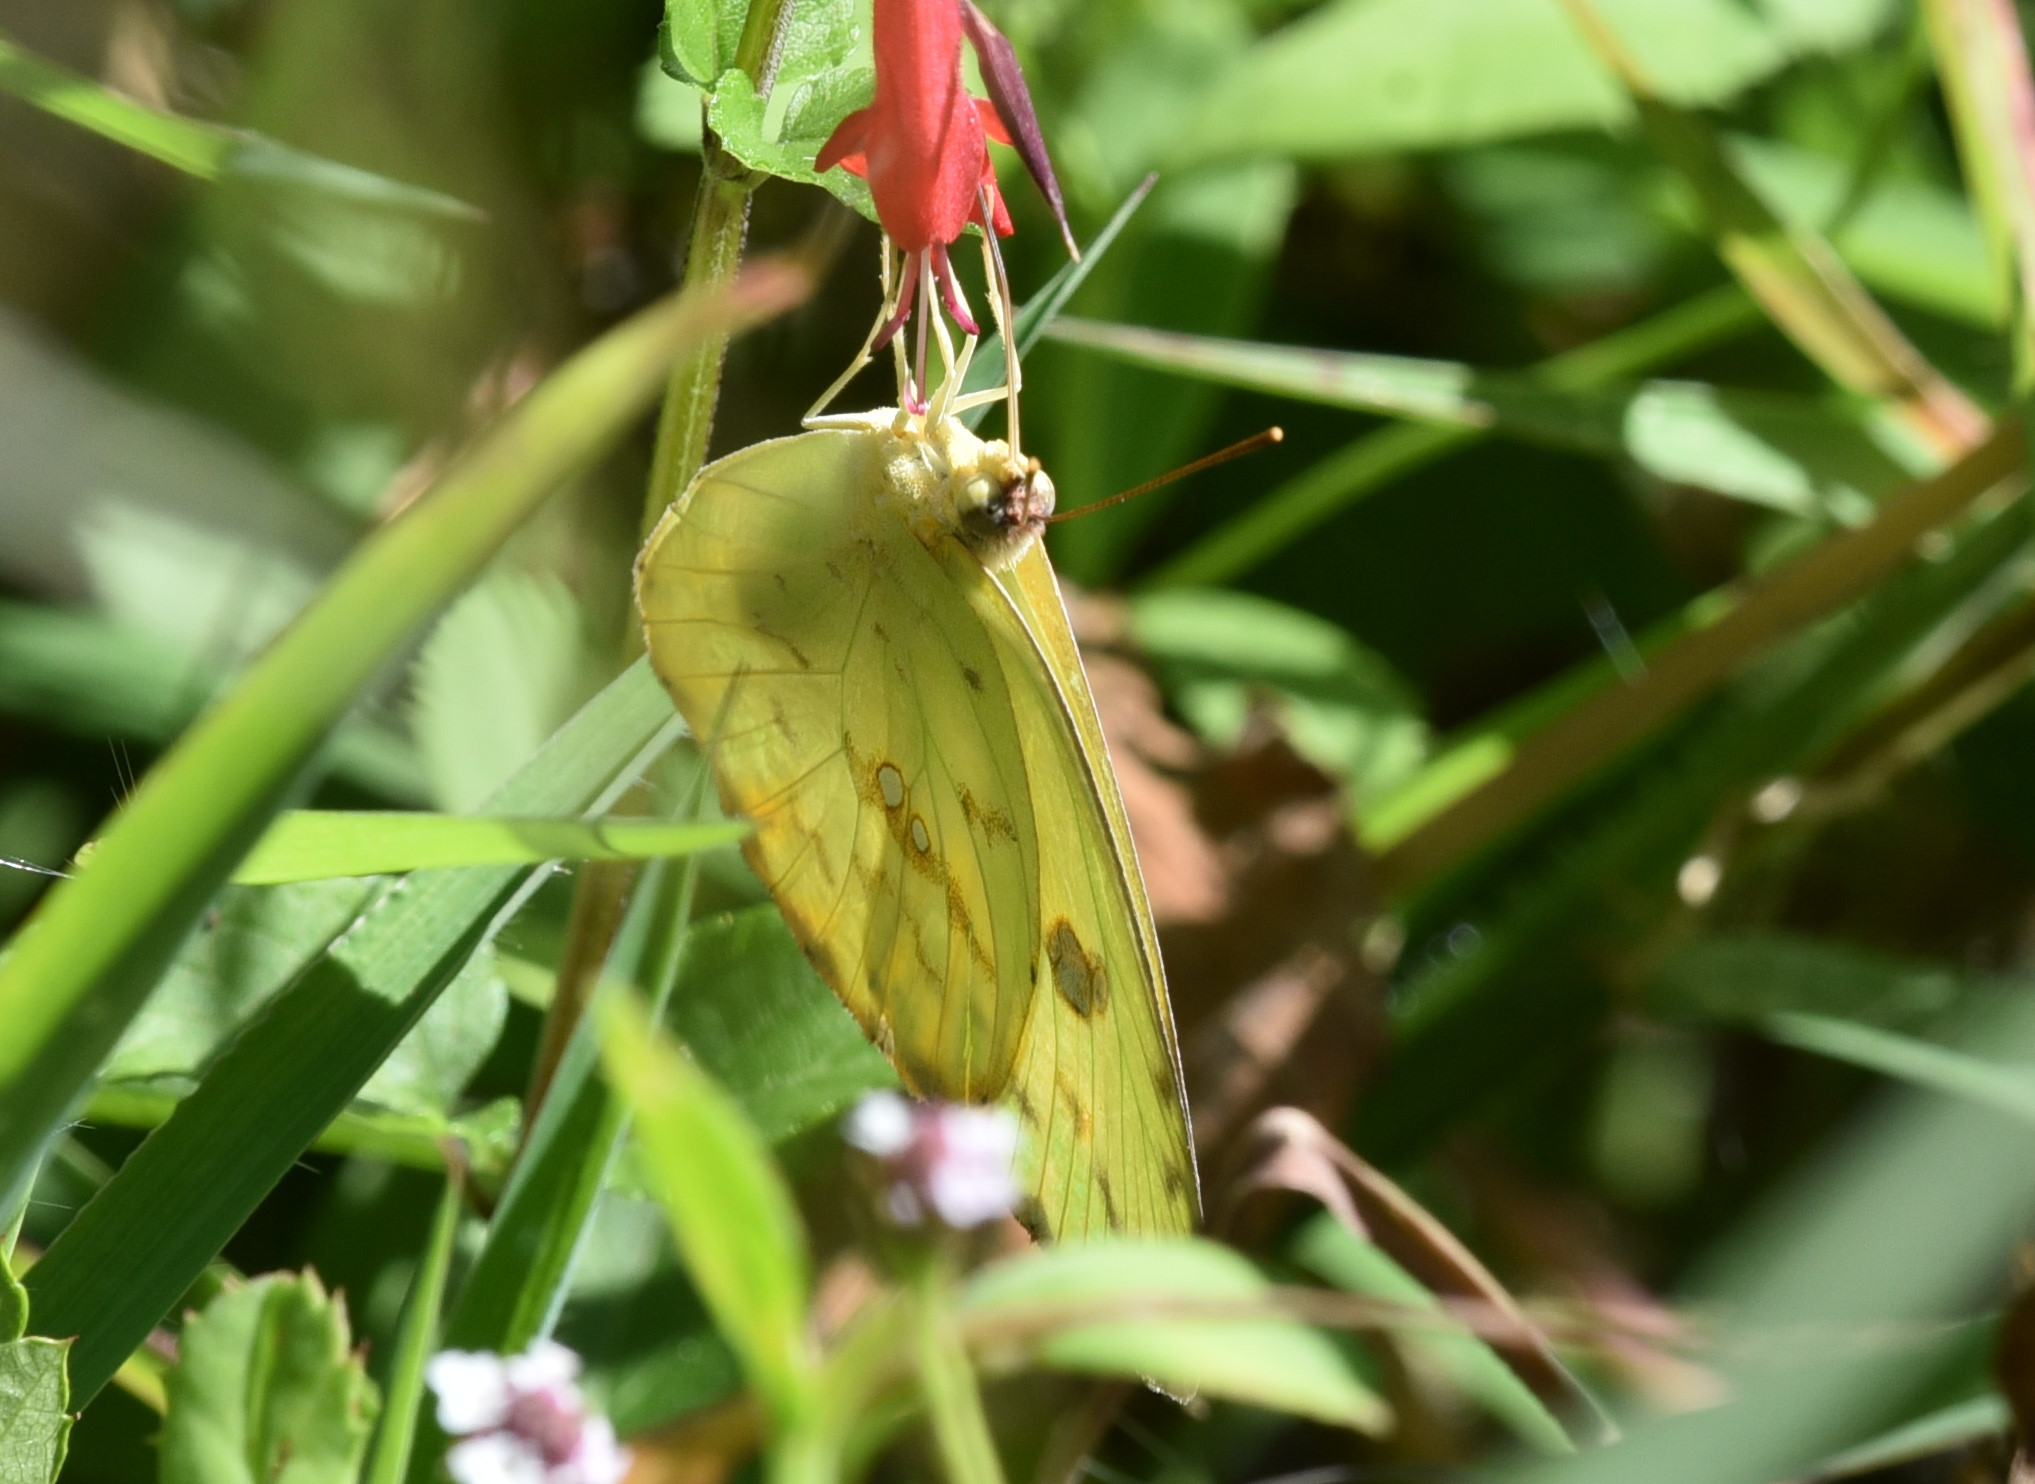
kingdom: Animalia
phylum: Arthropoda
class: Insecta
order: Lepidoptera
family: Pieridae
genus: Phoebis
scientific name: Phoebis sennae
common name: Cloudless sulphur
